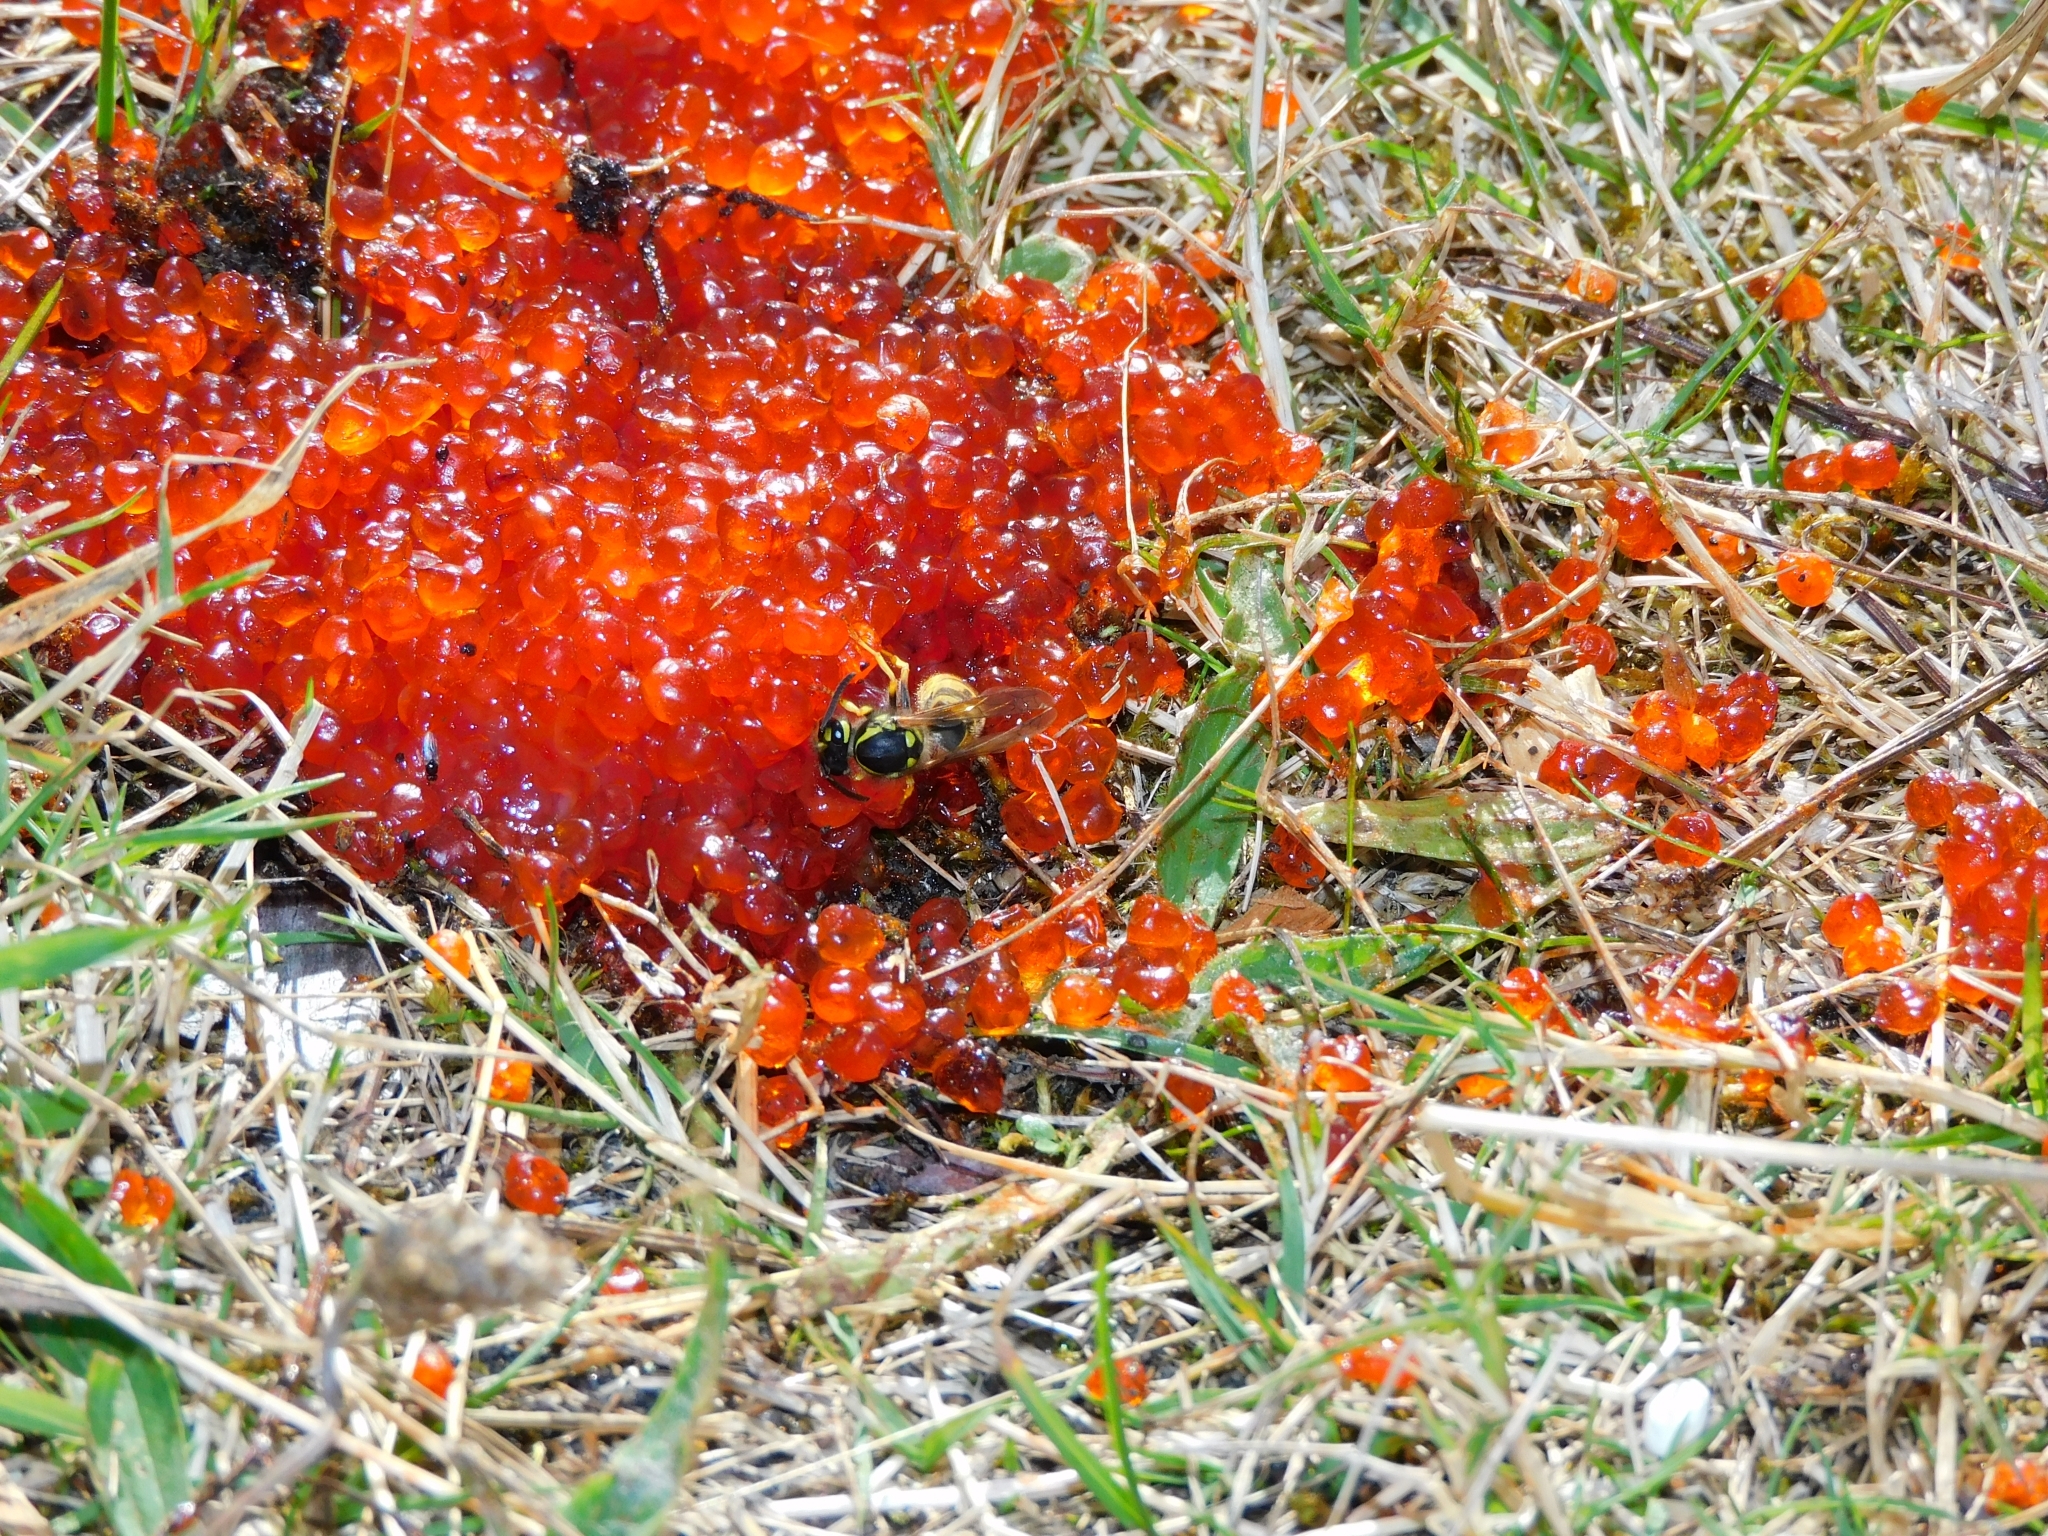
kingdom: Animalia
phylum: Arthropoda
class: Insecta
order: Hymenoptera
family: Vespidae
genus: Vespula
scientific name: Vespula germanica
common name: German wasp
